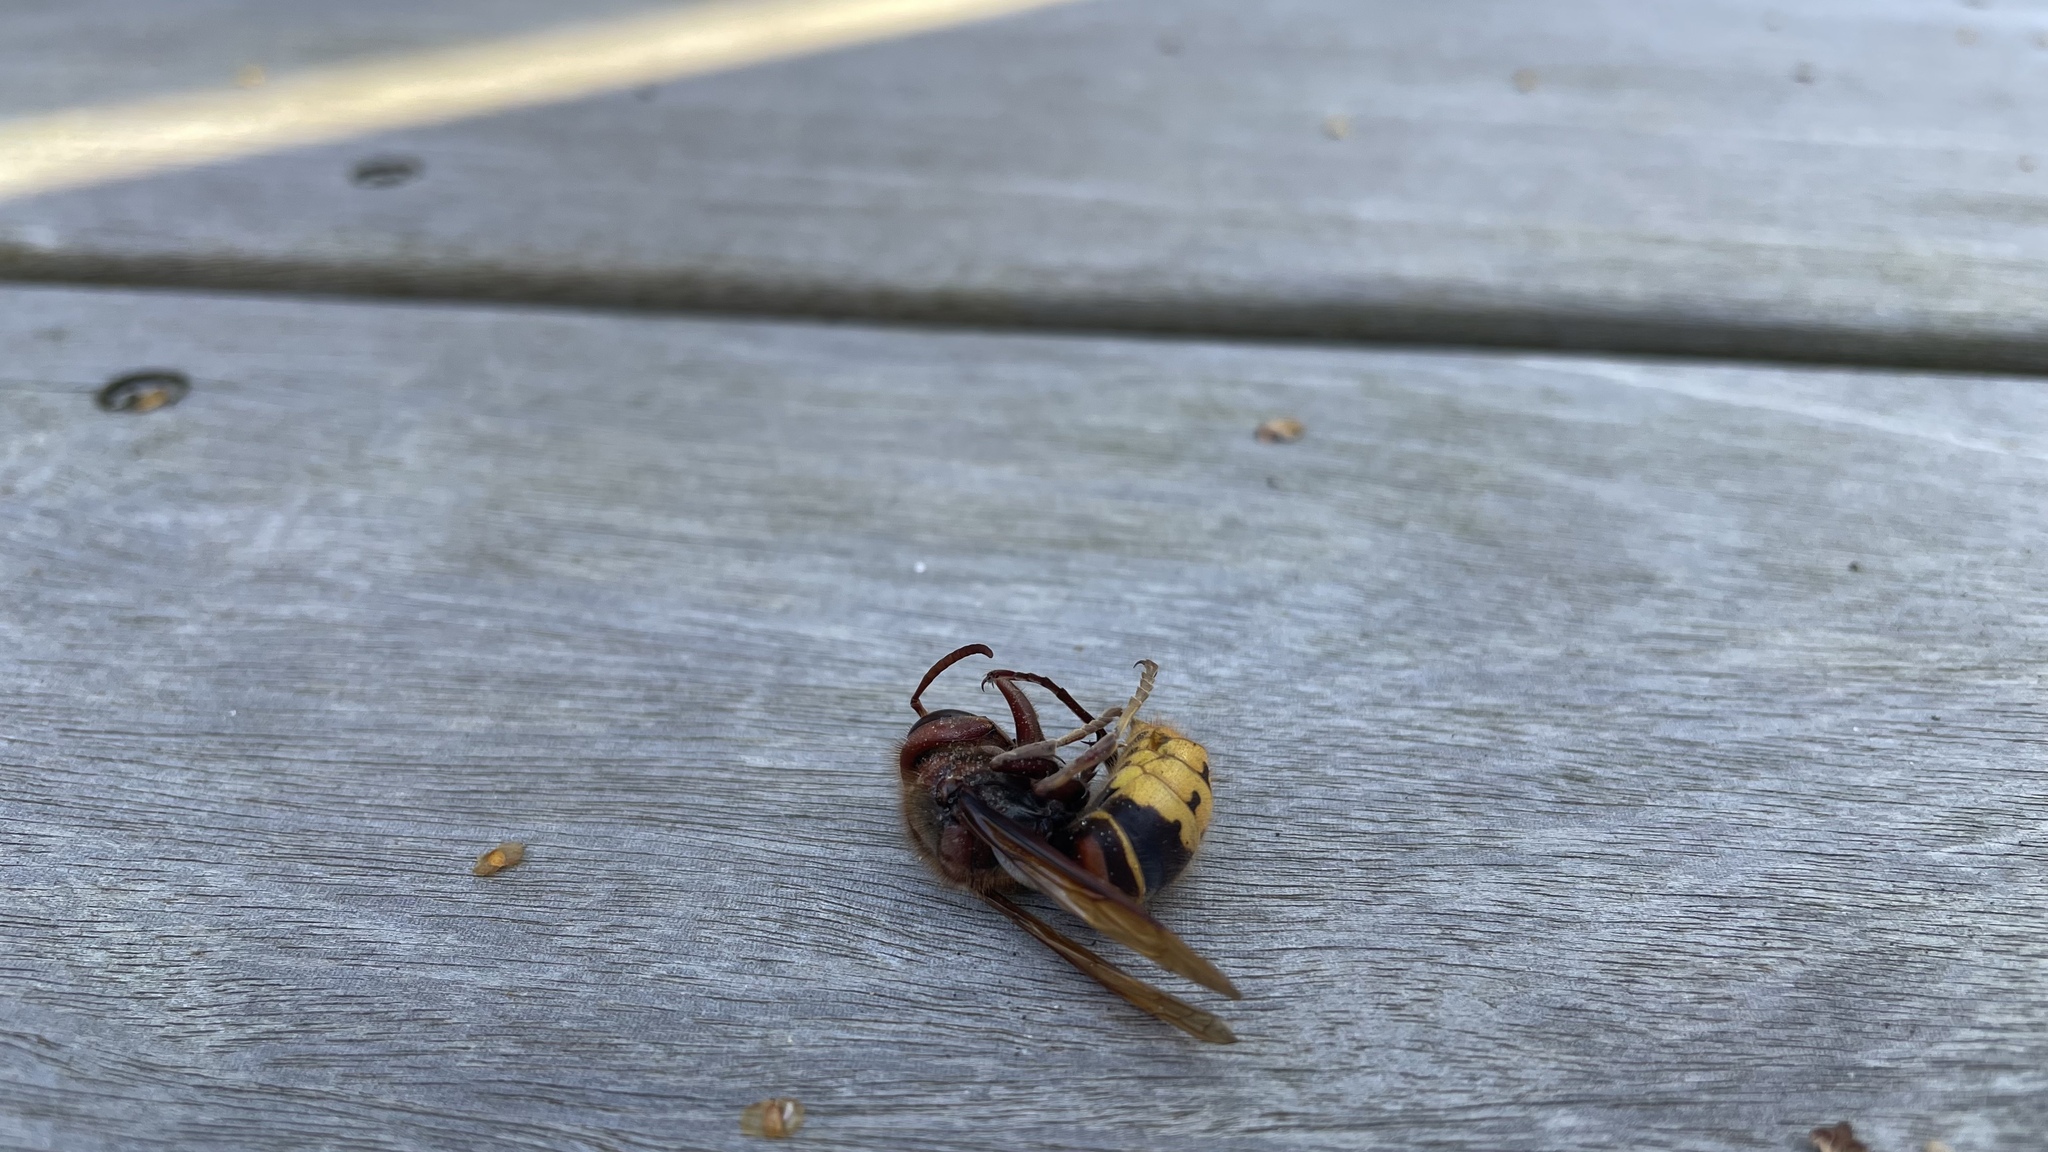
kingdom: Animalia
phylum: Arthropoda
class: Insecta
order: Hymenoptera
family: Vespidae
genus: Vespa
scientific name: Vespa crabro
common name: Hornet
